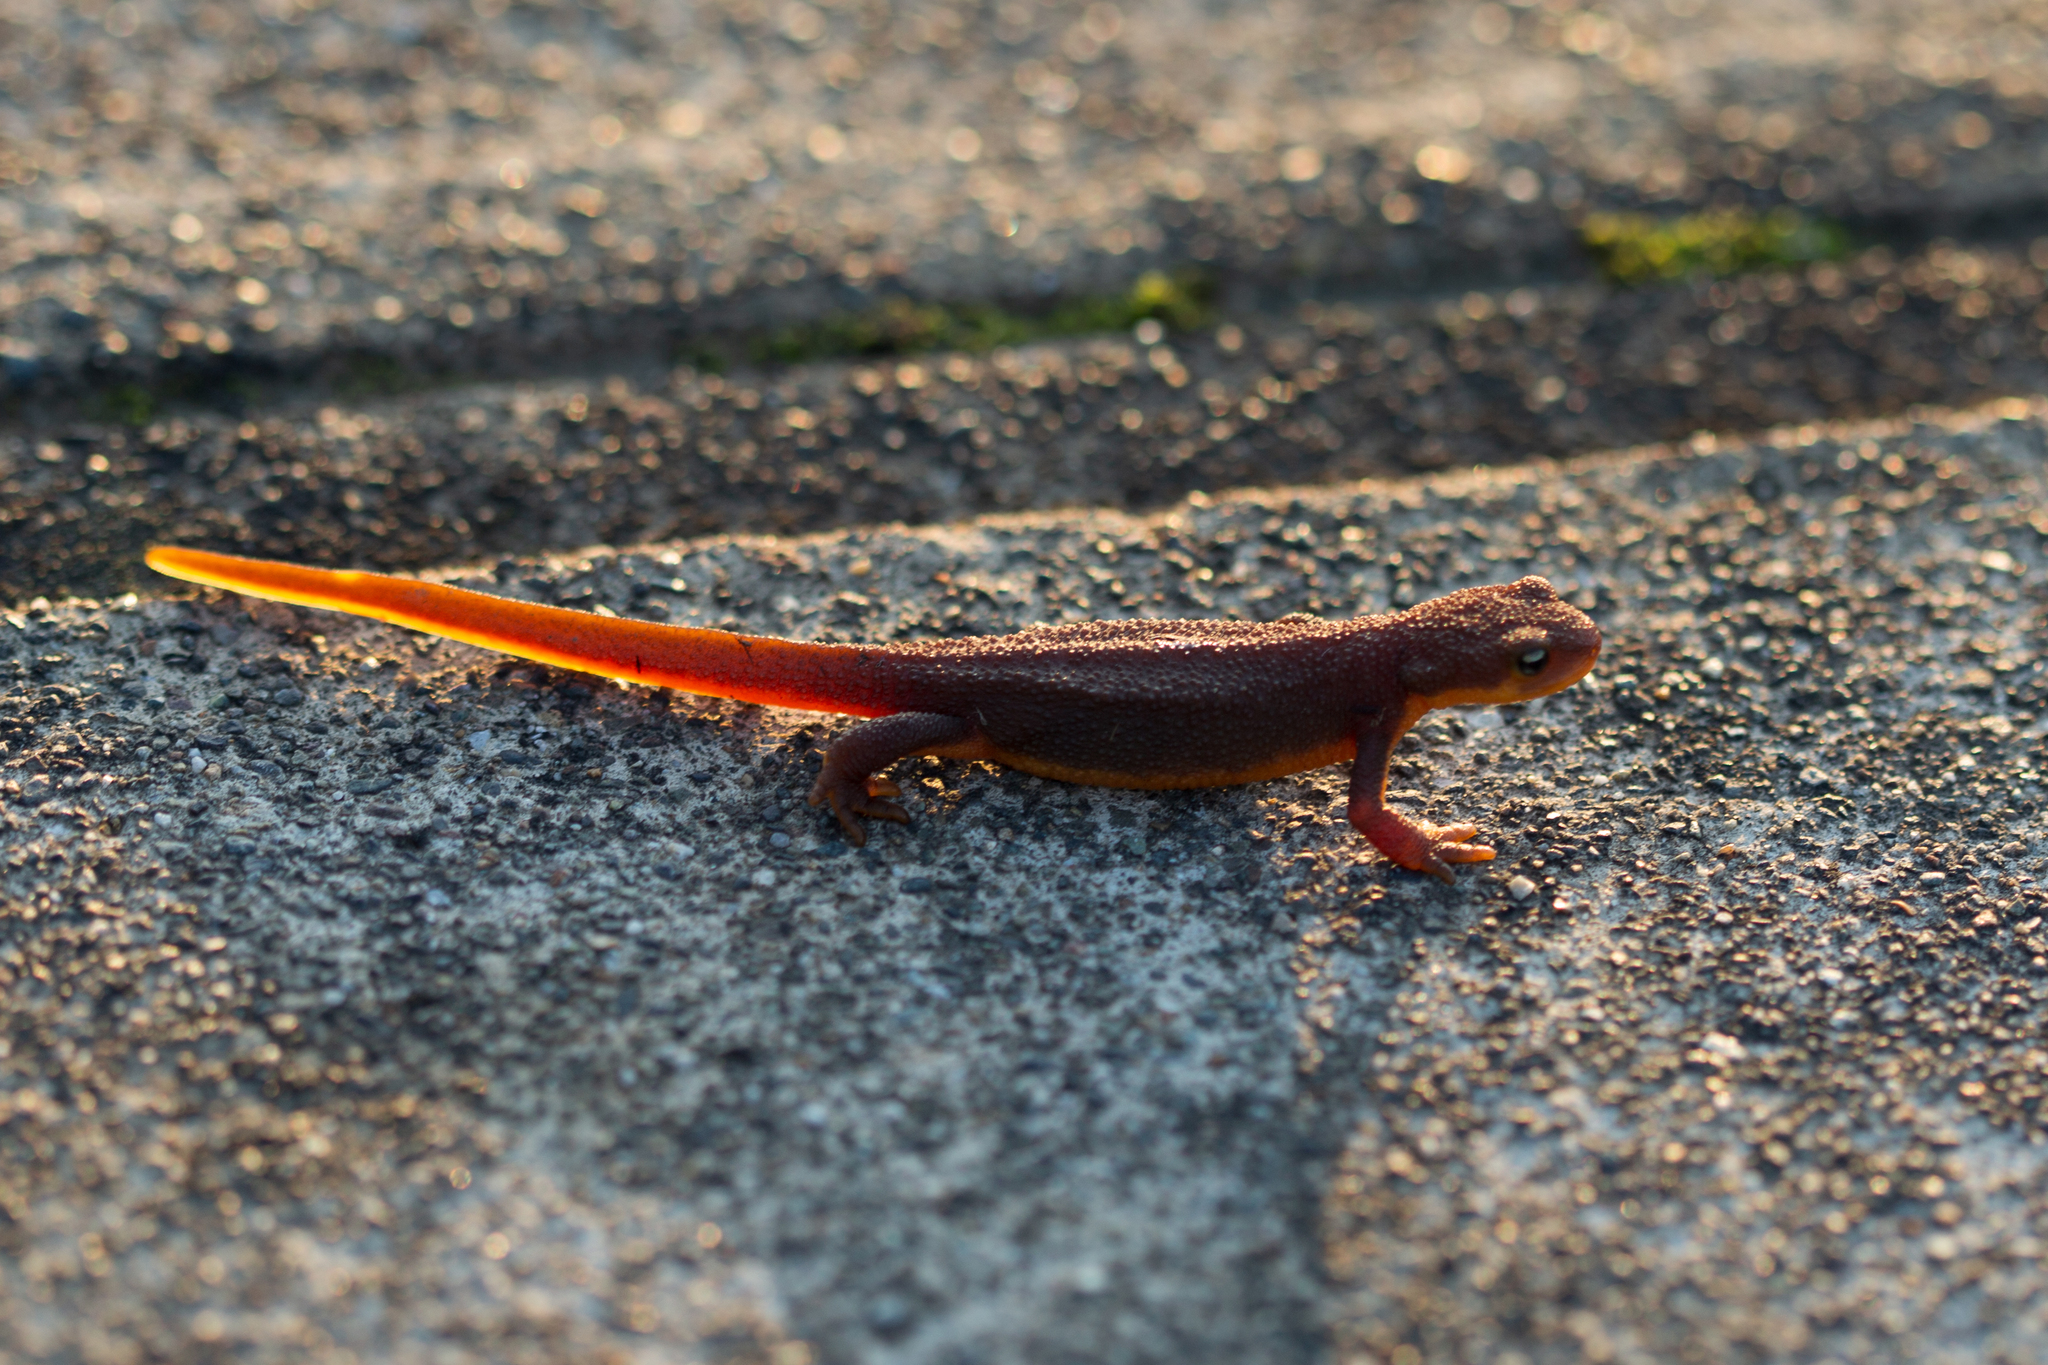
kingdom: Animalia
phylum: Chordata
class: Amphibia
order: Caudata
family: Salamandridae
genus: Taricha
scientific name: Taricha granulosa
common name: Roughskin newt
